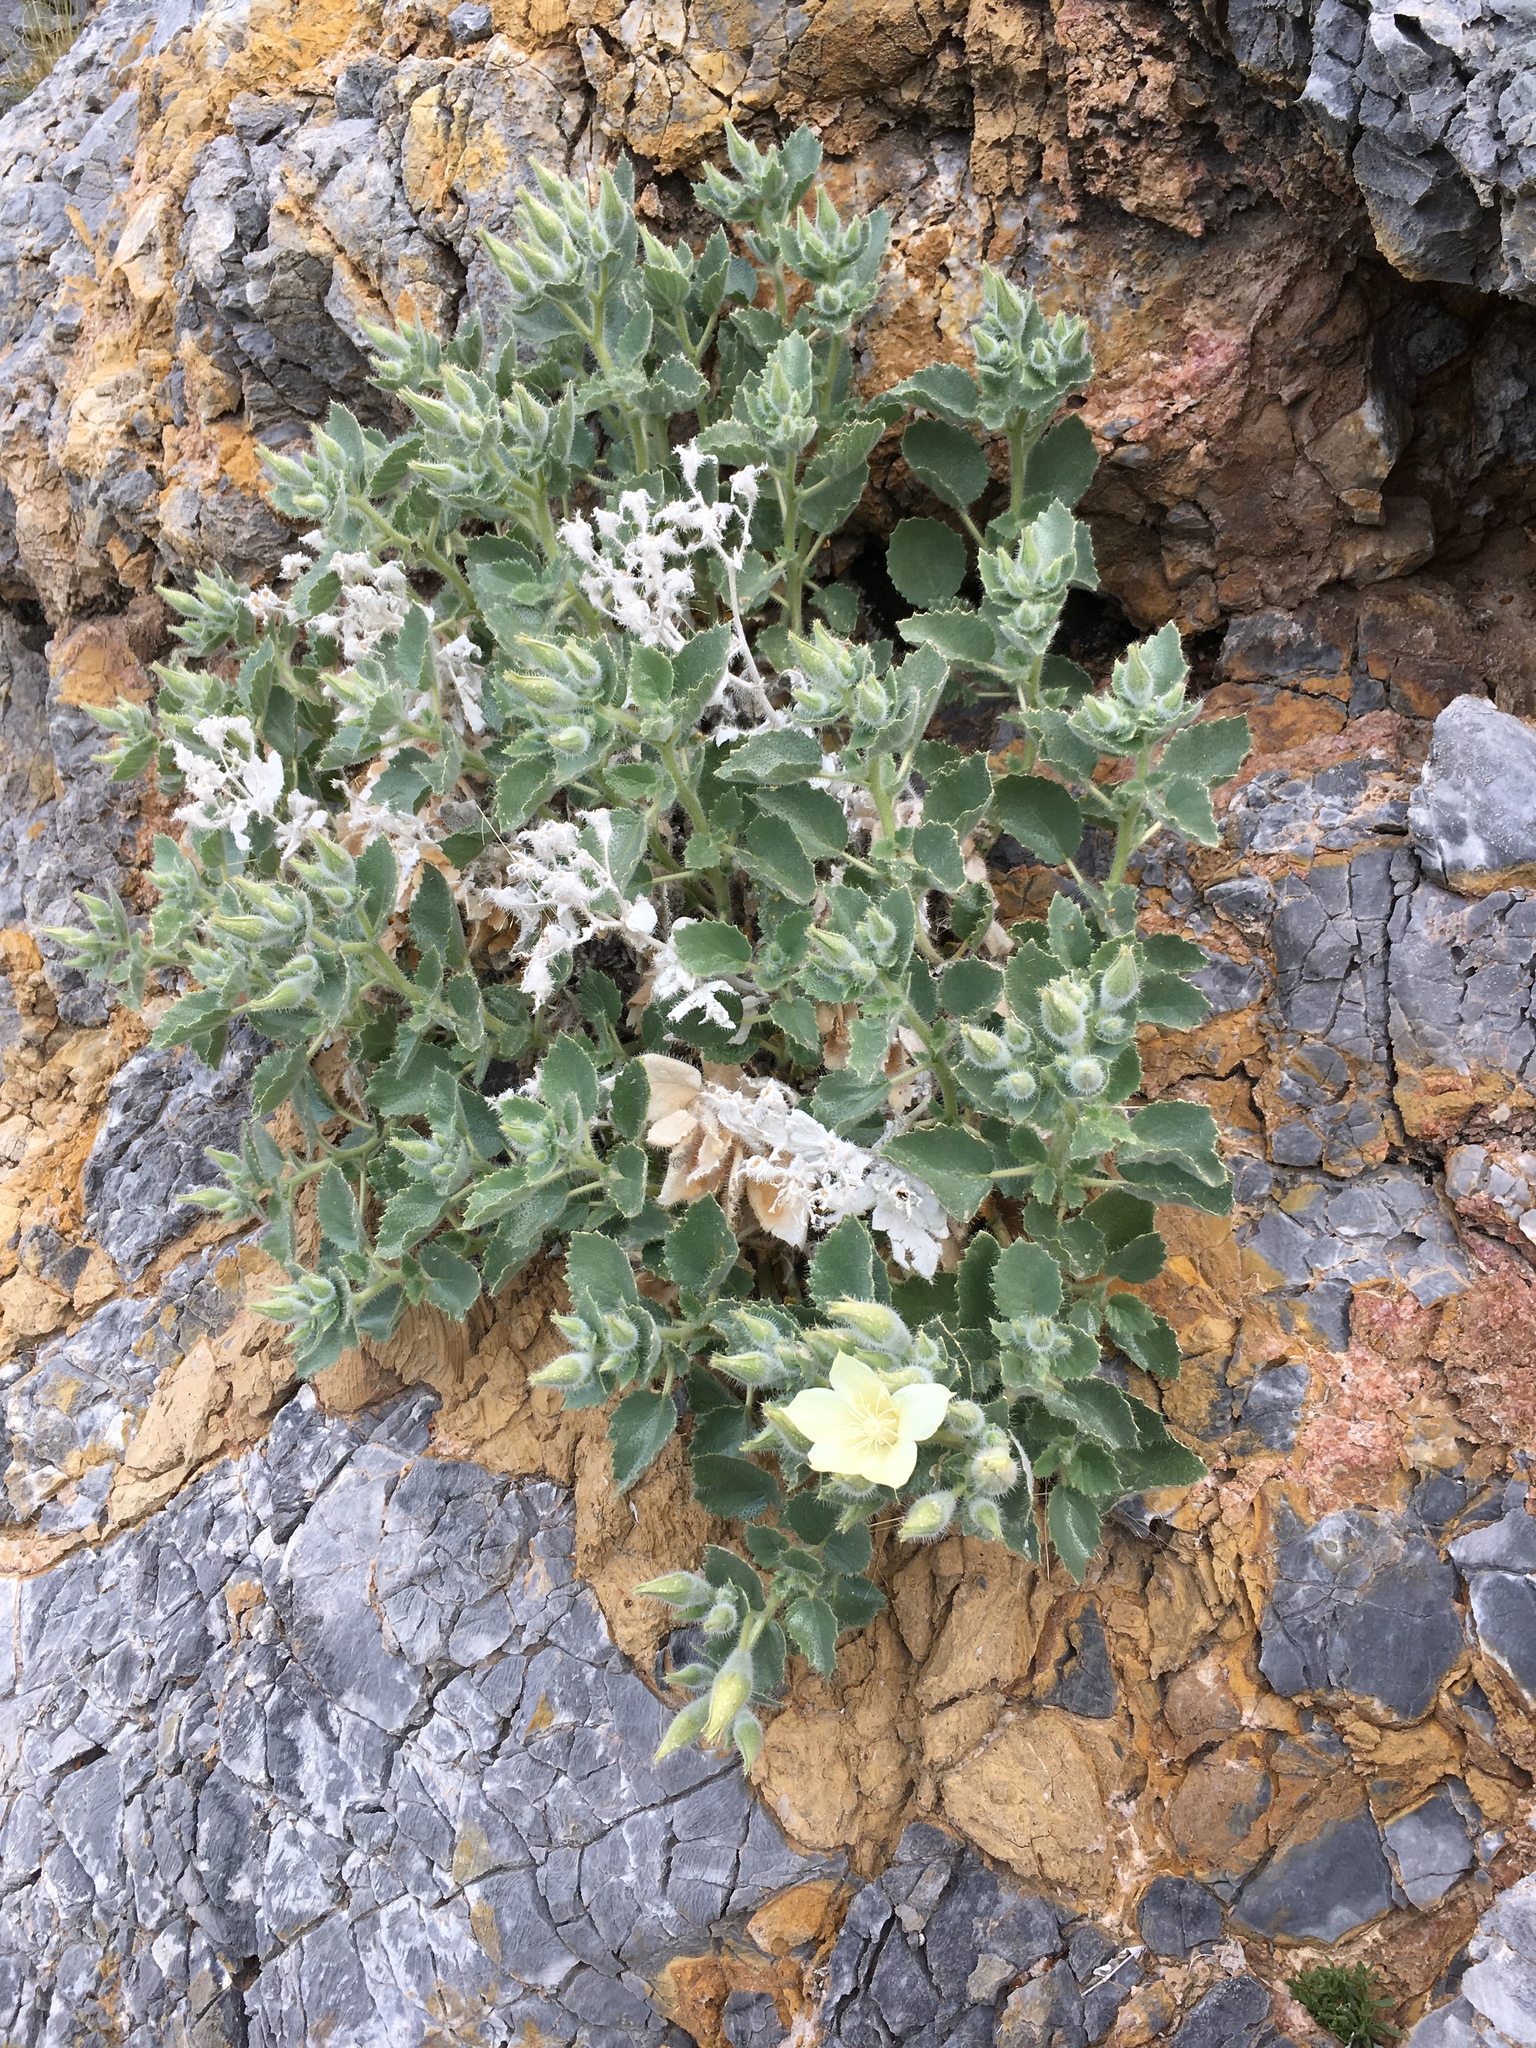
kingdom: Plantae
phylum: Tracheophyta
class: Magnoliopsida
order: Cornales
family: Loasaceae
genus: Eucnide
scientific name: Eucnide urens
